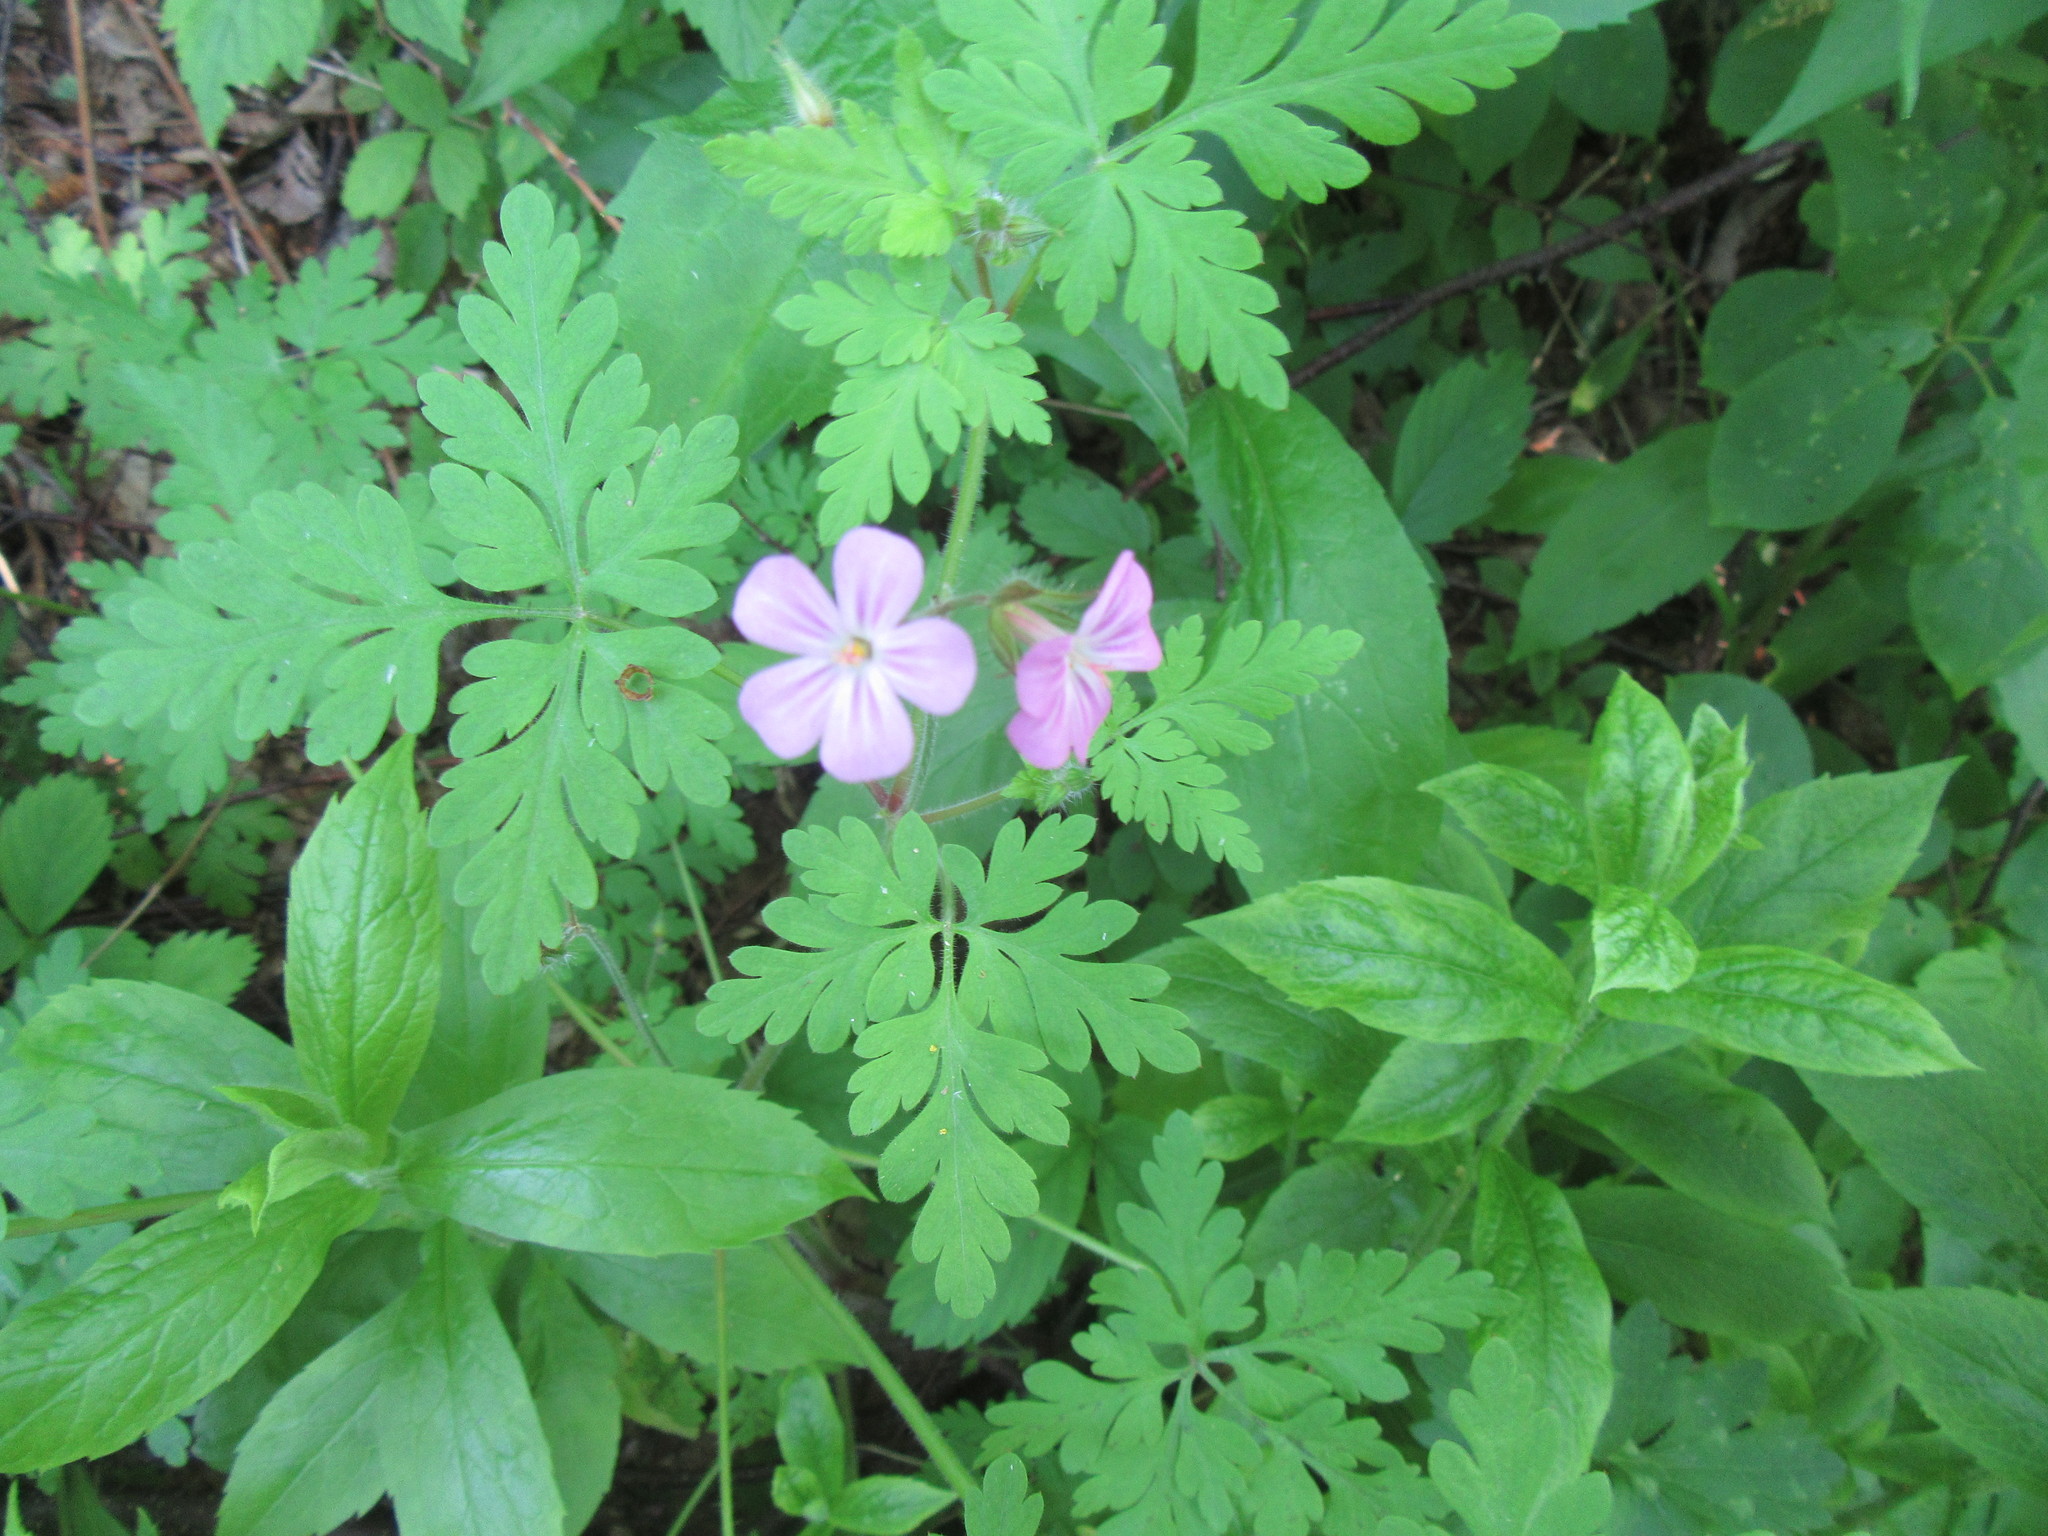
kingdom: Plantae
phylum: Tracheophyta
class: Magnoliopsida
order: Geraniales
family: Geraniaceae
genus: Geranium
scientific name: Geranium robertianum
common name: Herb-robert
